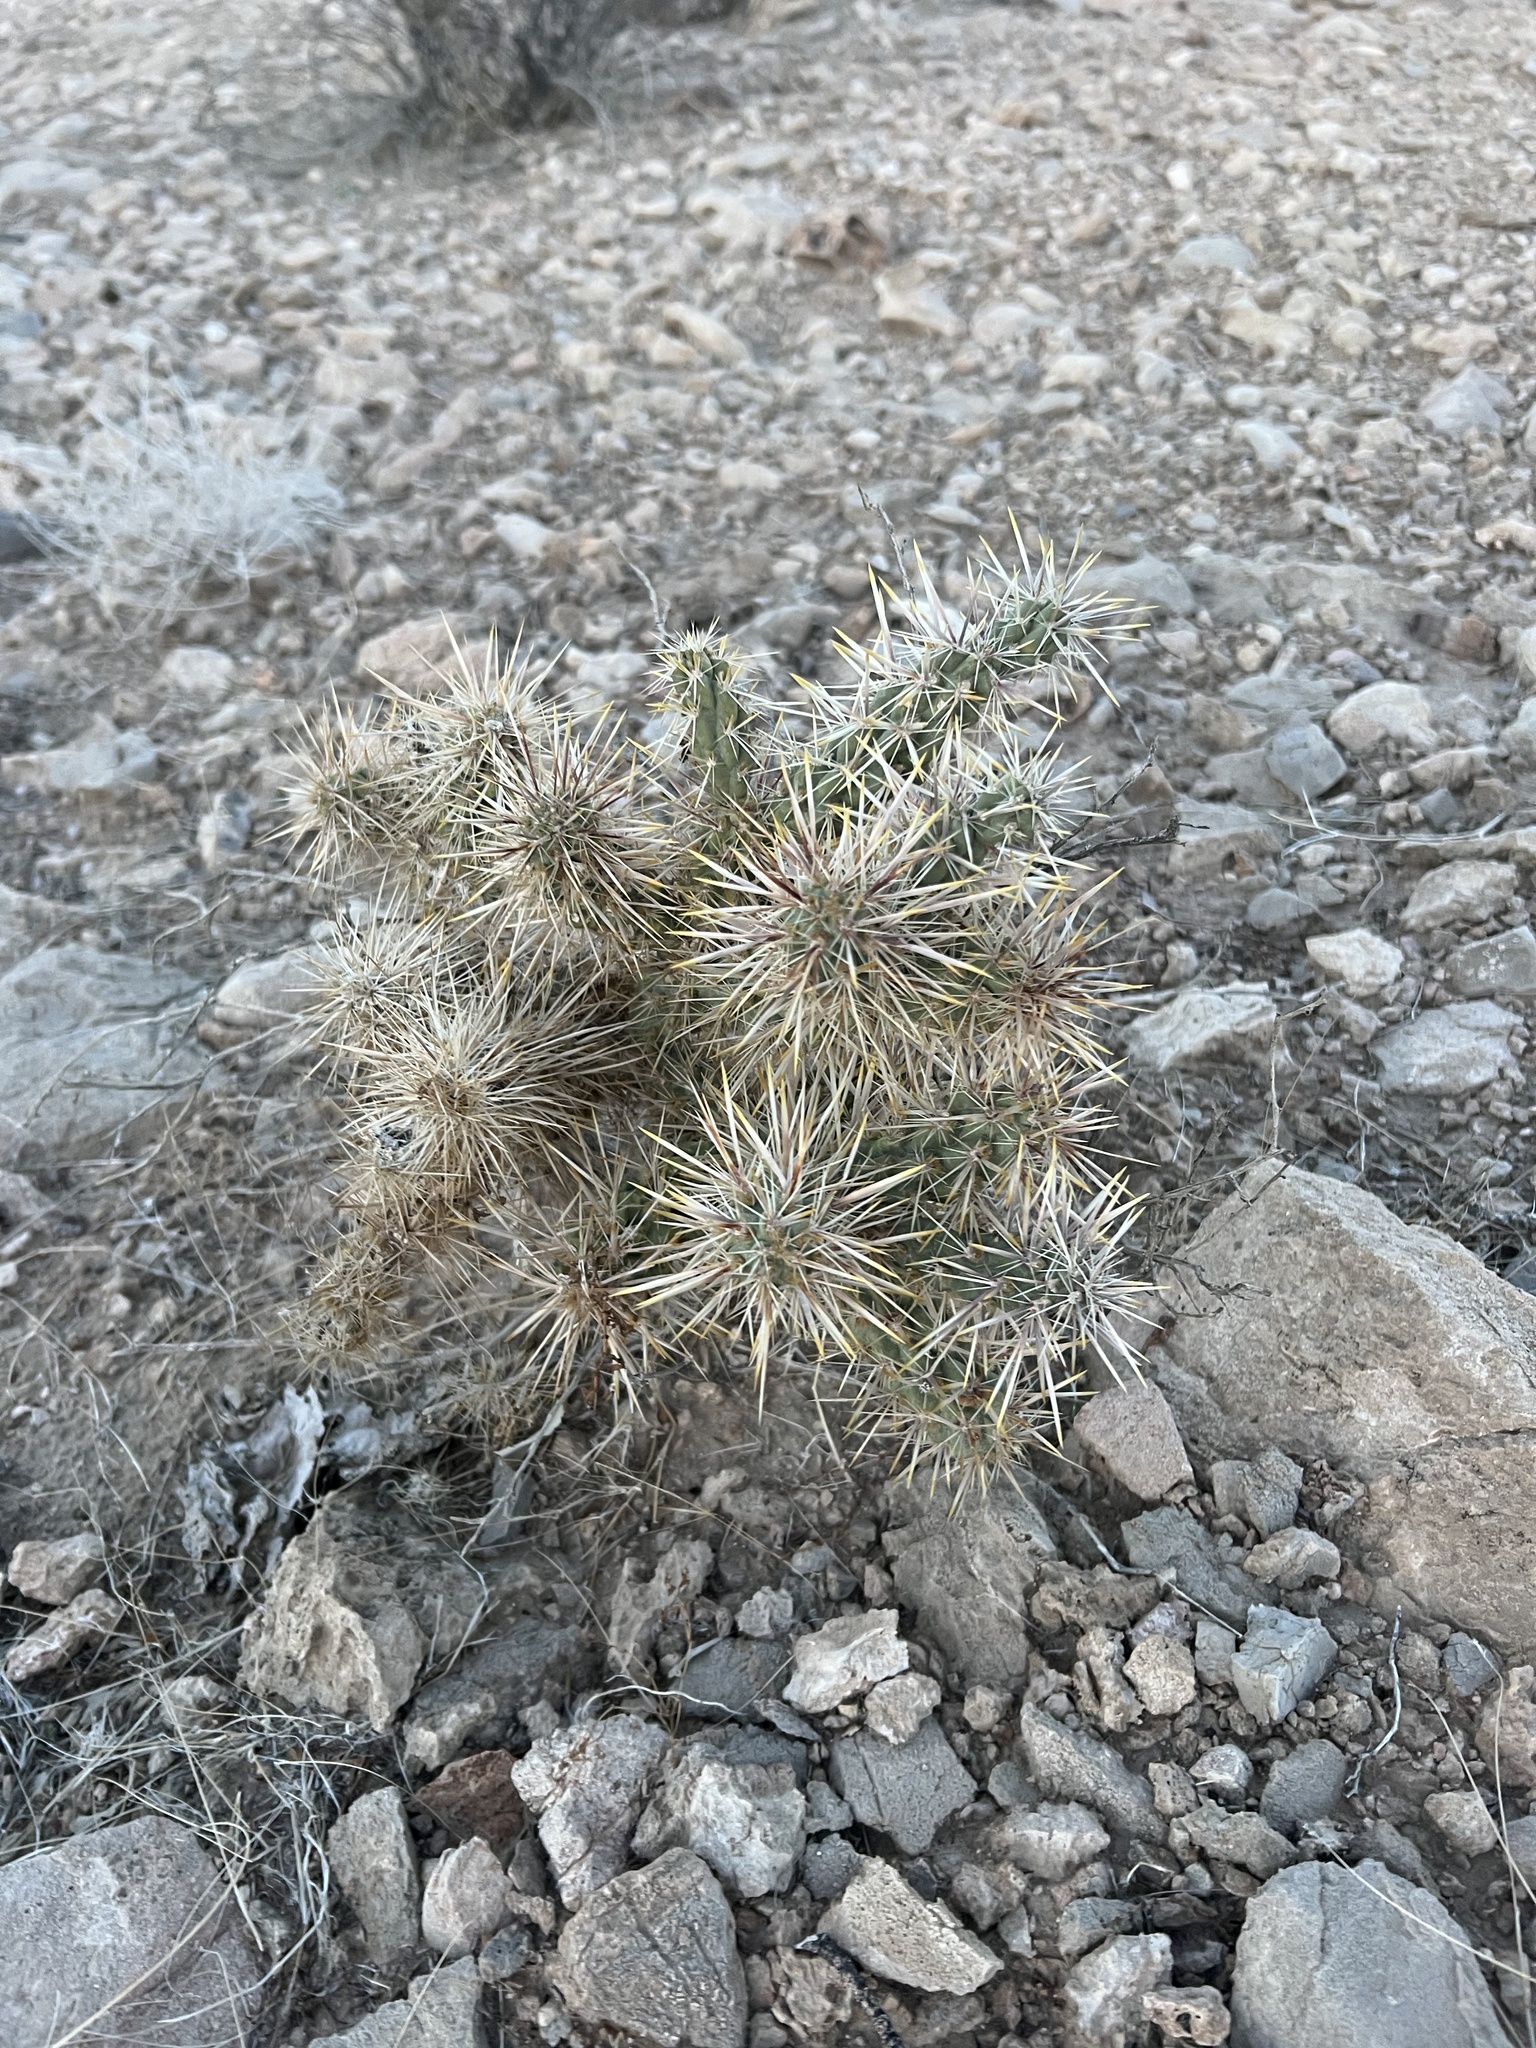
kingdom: Plantae
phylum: Tracheophyta
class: Magnoliopsida
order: Caryophyllales
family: Cactaceae
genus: Cylindropuntia
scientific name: Cylindropuntia echinocarpa
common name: Ground cholla
